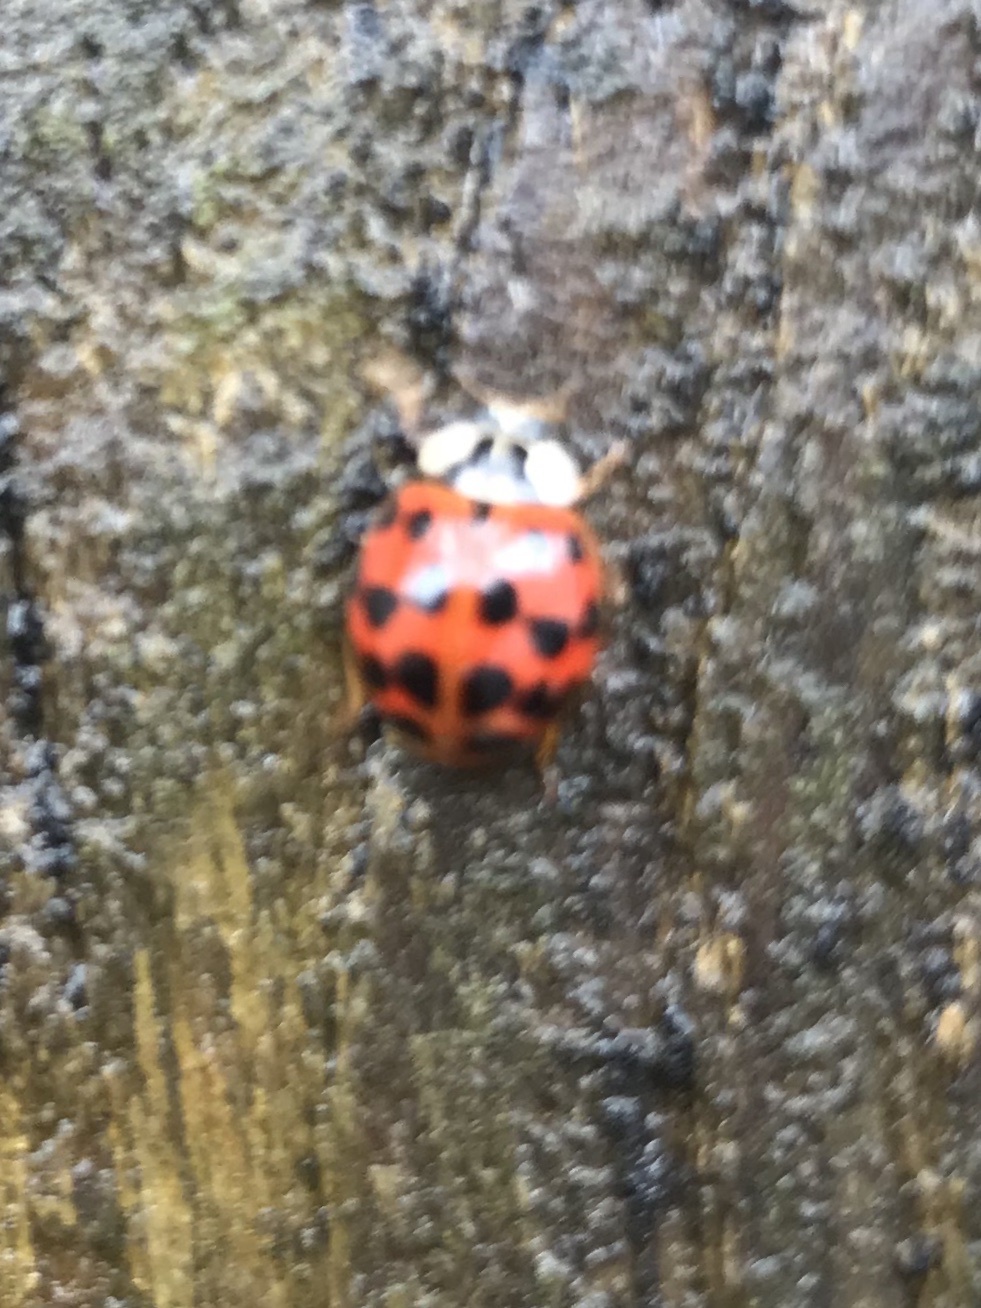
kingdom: Animalia
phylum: Arthropoda
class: Insecta
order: Coleoptera
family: Coccinellidae
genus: Harmonia
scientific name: Harmonia axyridis
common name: Harlequin ladybird
